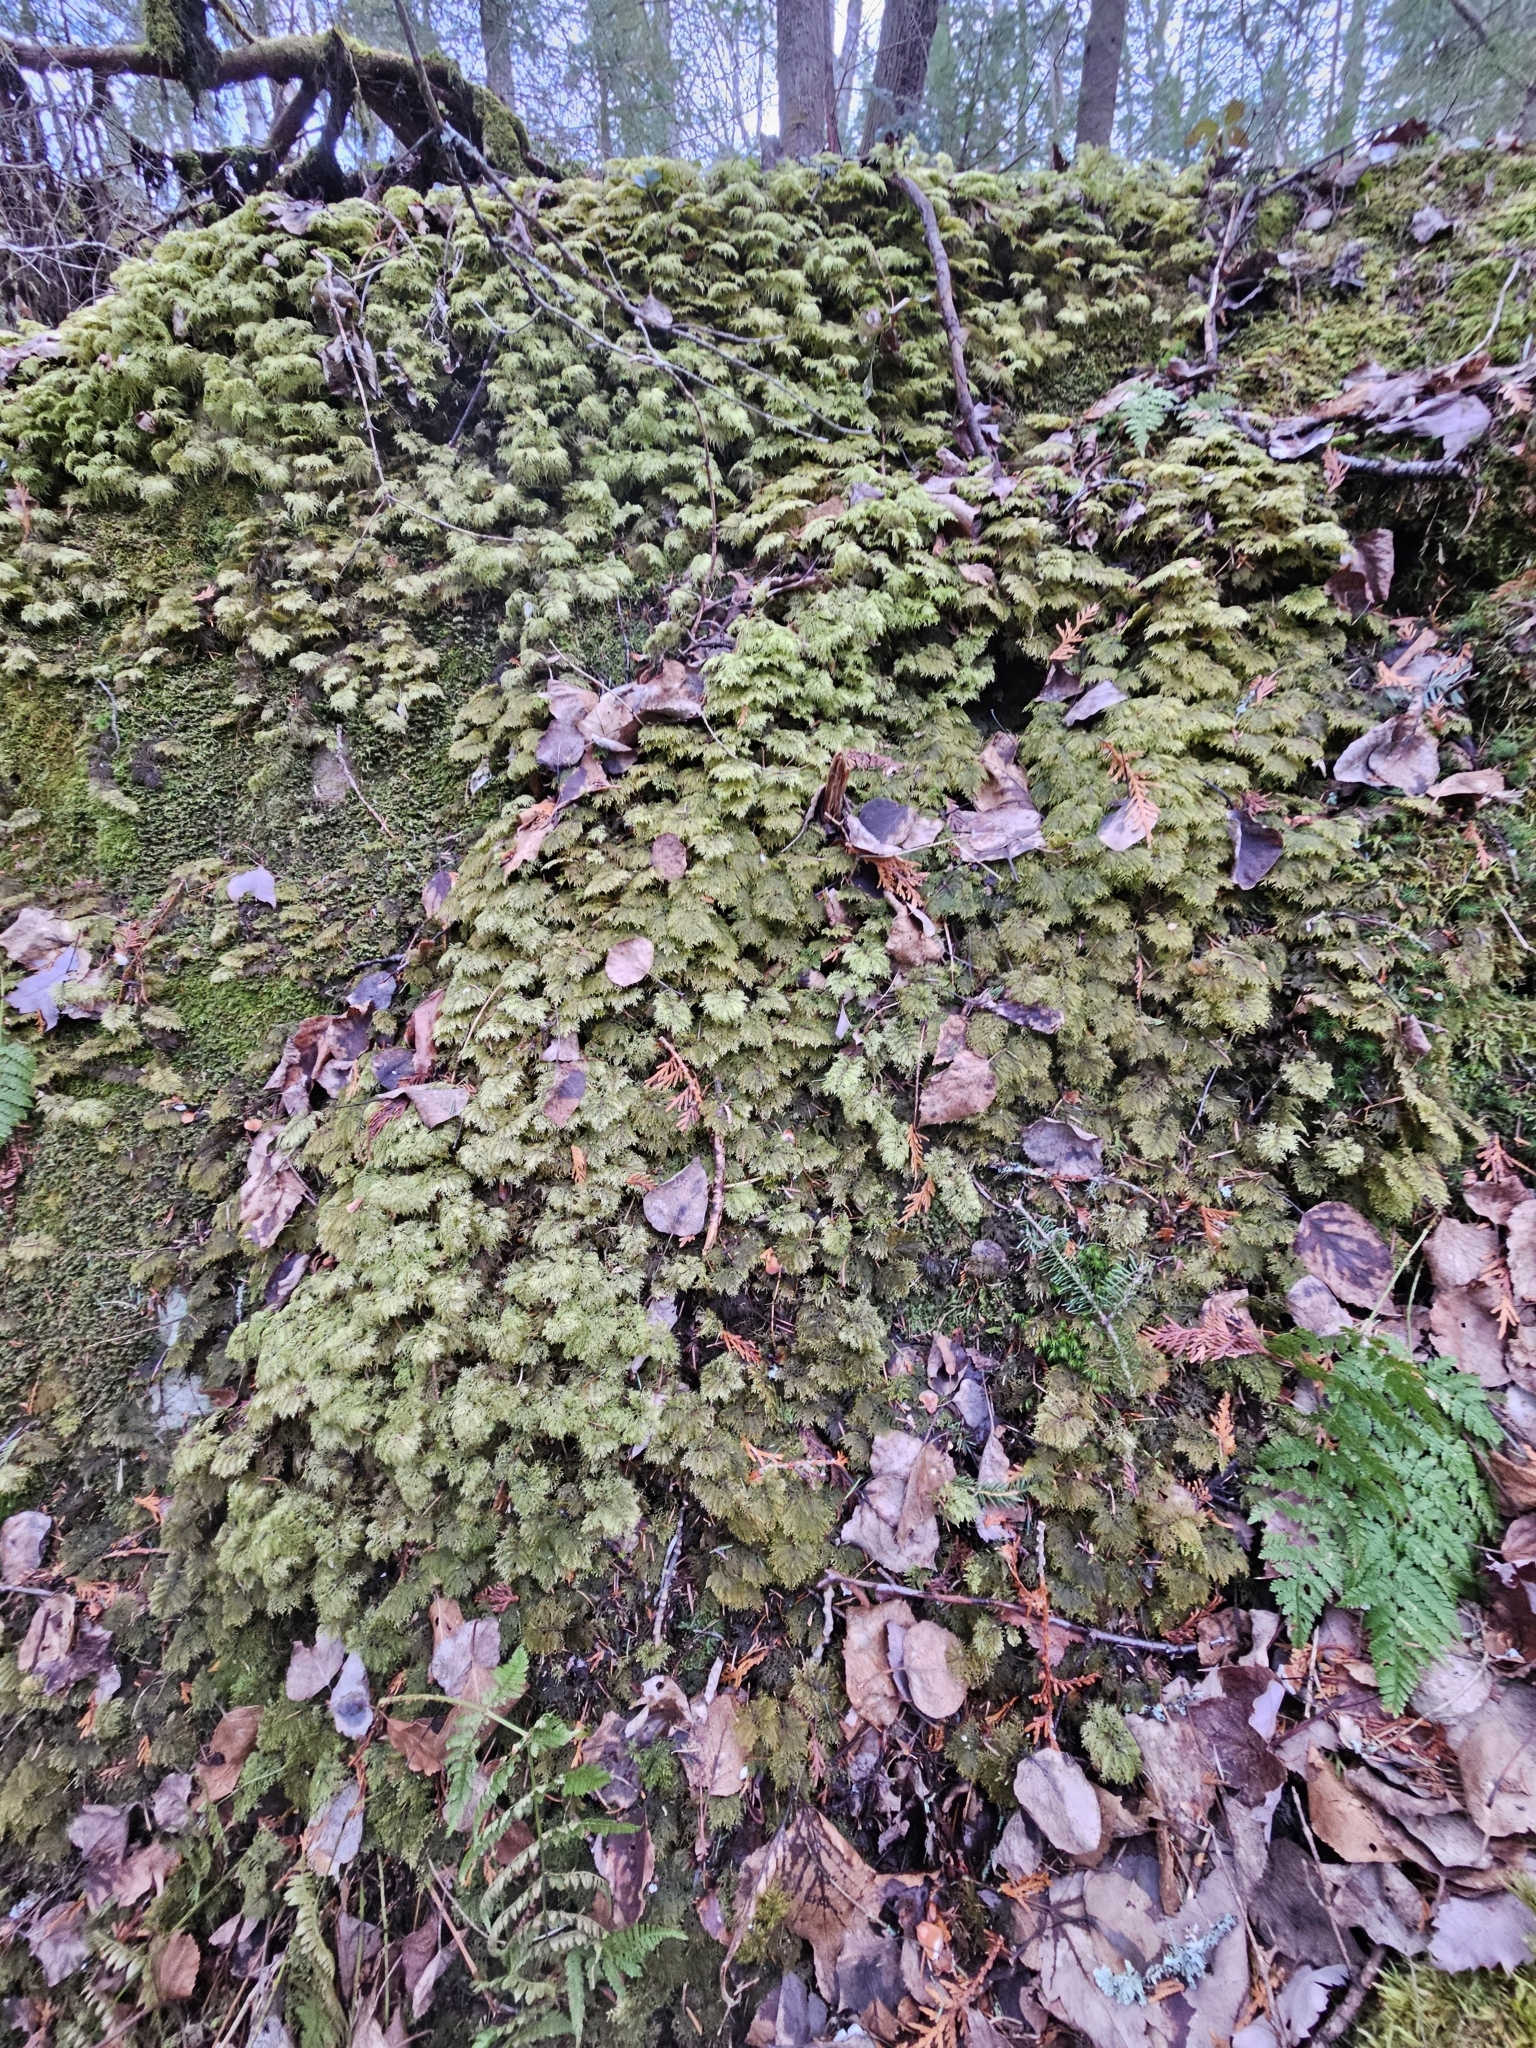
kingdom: Plantae
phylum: Bryophyta
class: Bryopsida
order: Hypnales
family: Hylocomiaceae
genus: Hylocomium
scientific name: Hylocomium splendens
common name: Stairstep moss
